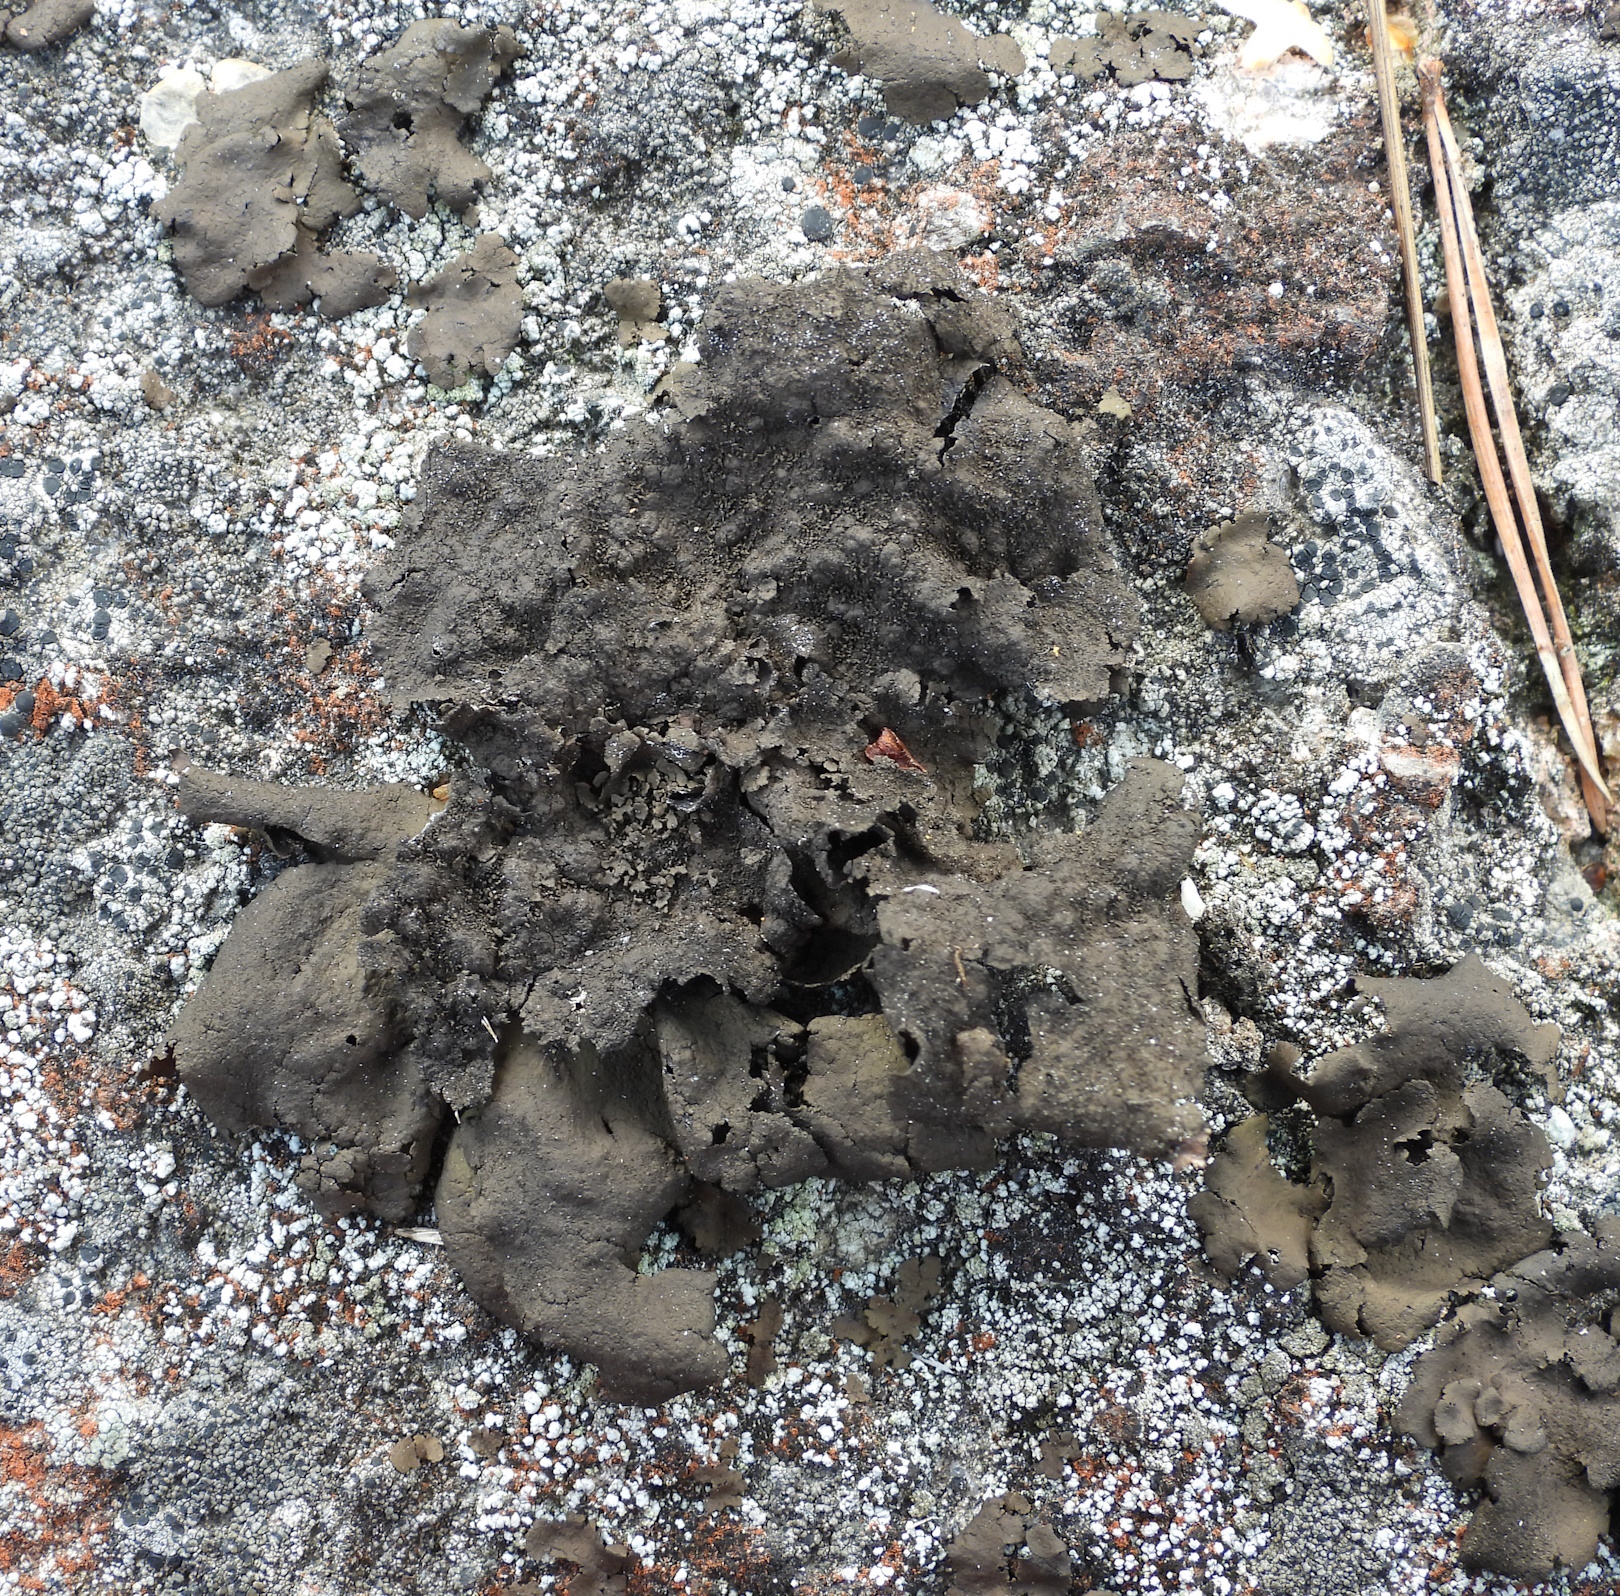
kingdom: Fungi
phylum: Ascomycota
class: Lecanoromycetes
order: Umbilicariales
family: Umbilicariaceae
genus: Umbilicaria
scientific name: Umbilicaria deusta
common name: Peppered rock tripe
